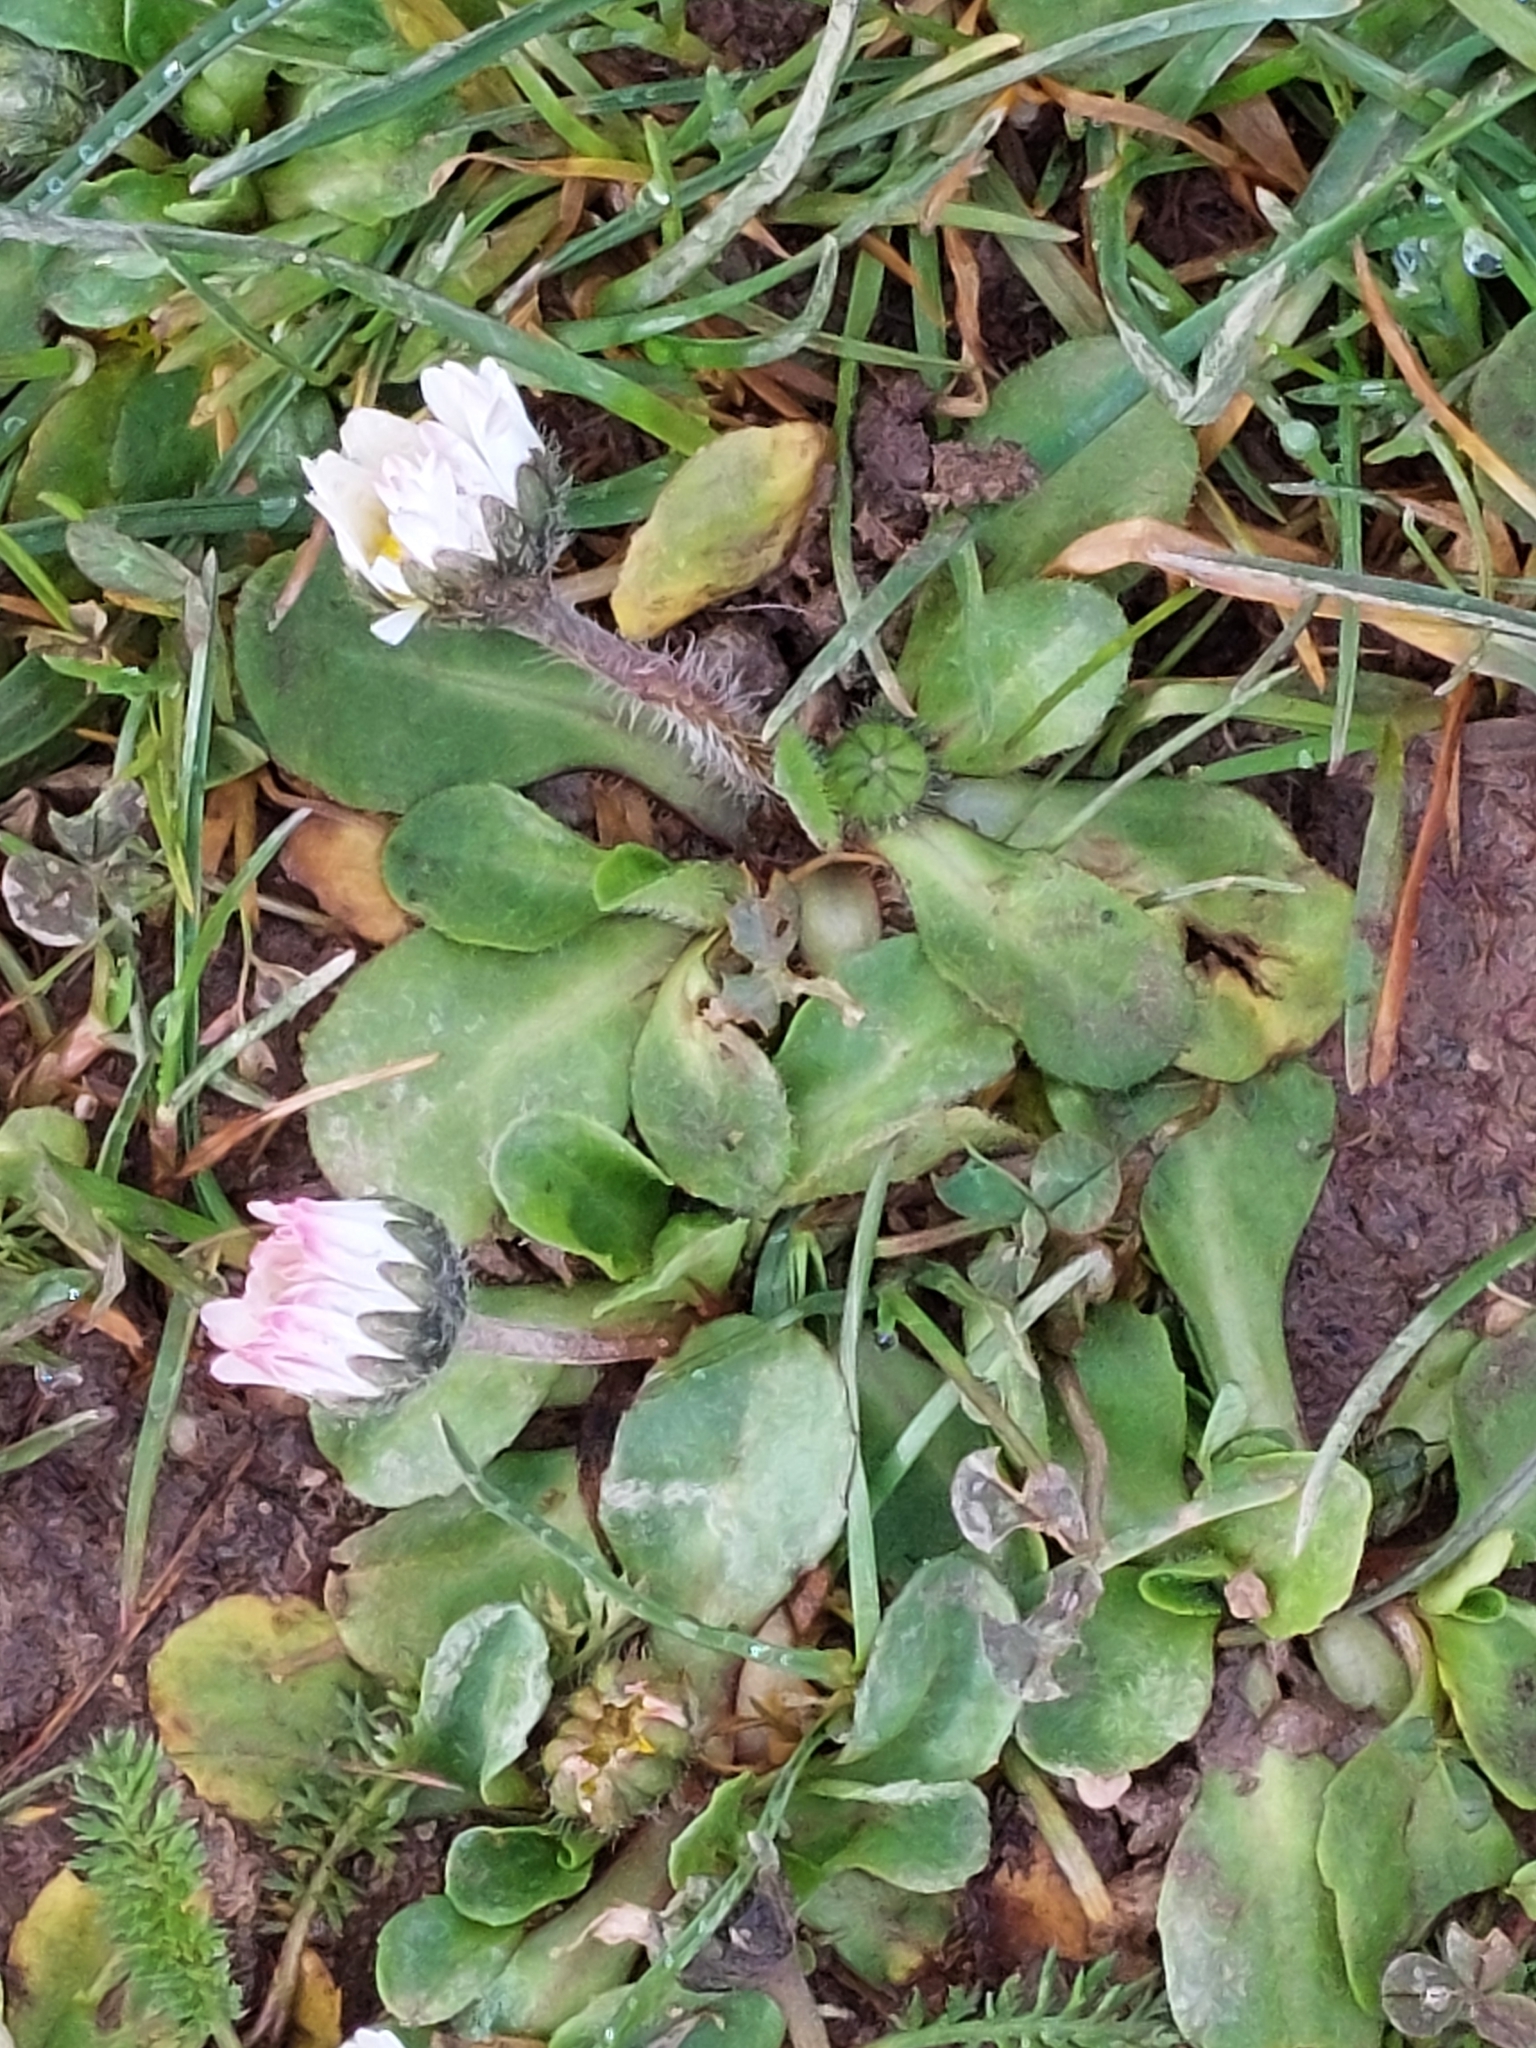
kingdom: Plantae
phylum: Tracheophyta
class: Magnoliopsida
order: Asterales
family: Asteraceae
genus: Bellis
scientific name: Bellis perennis
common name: Lawndaisy
